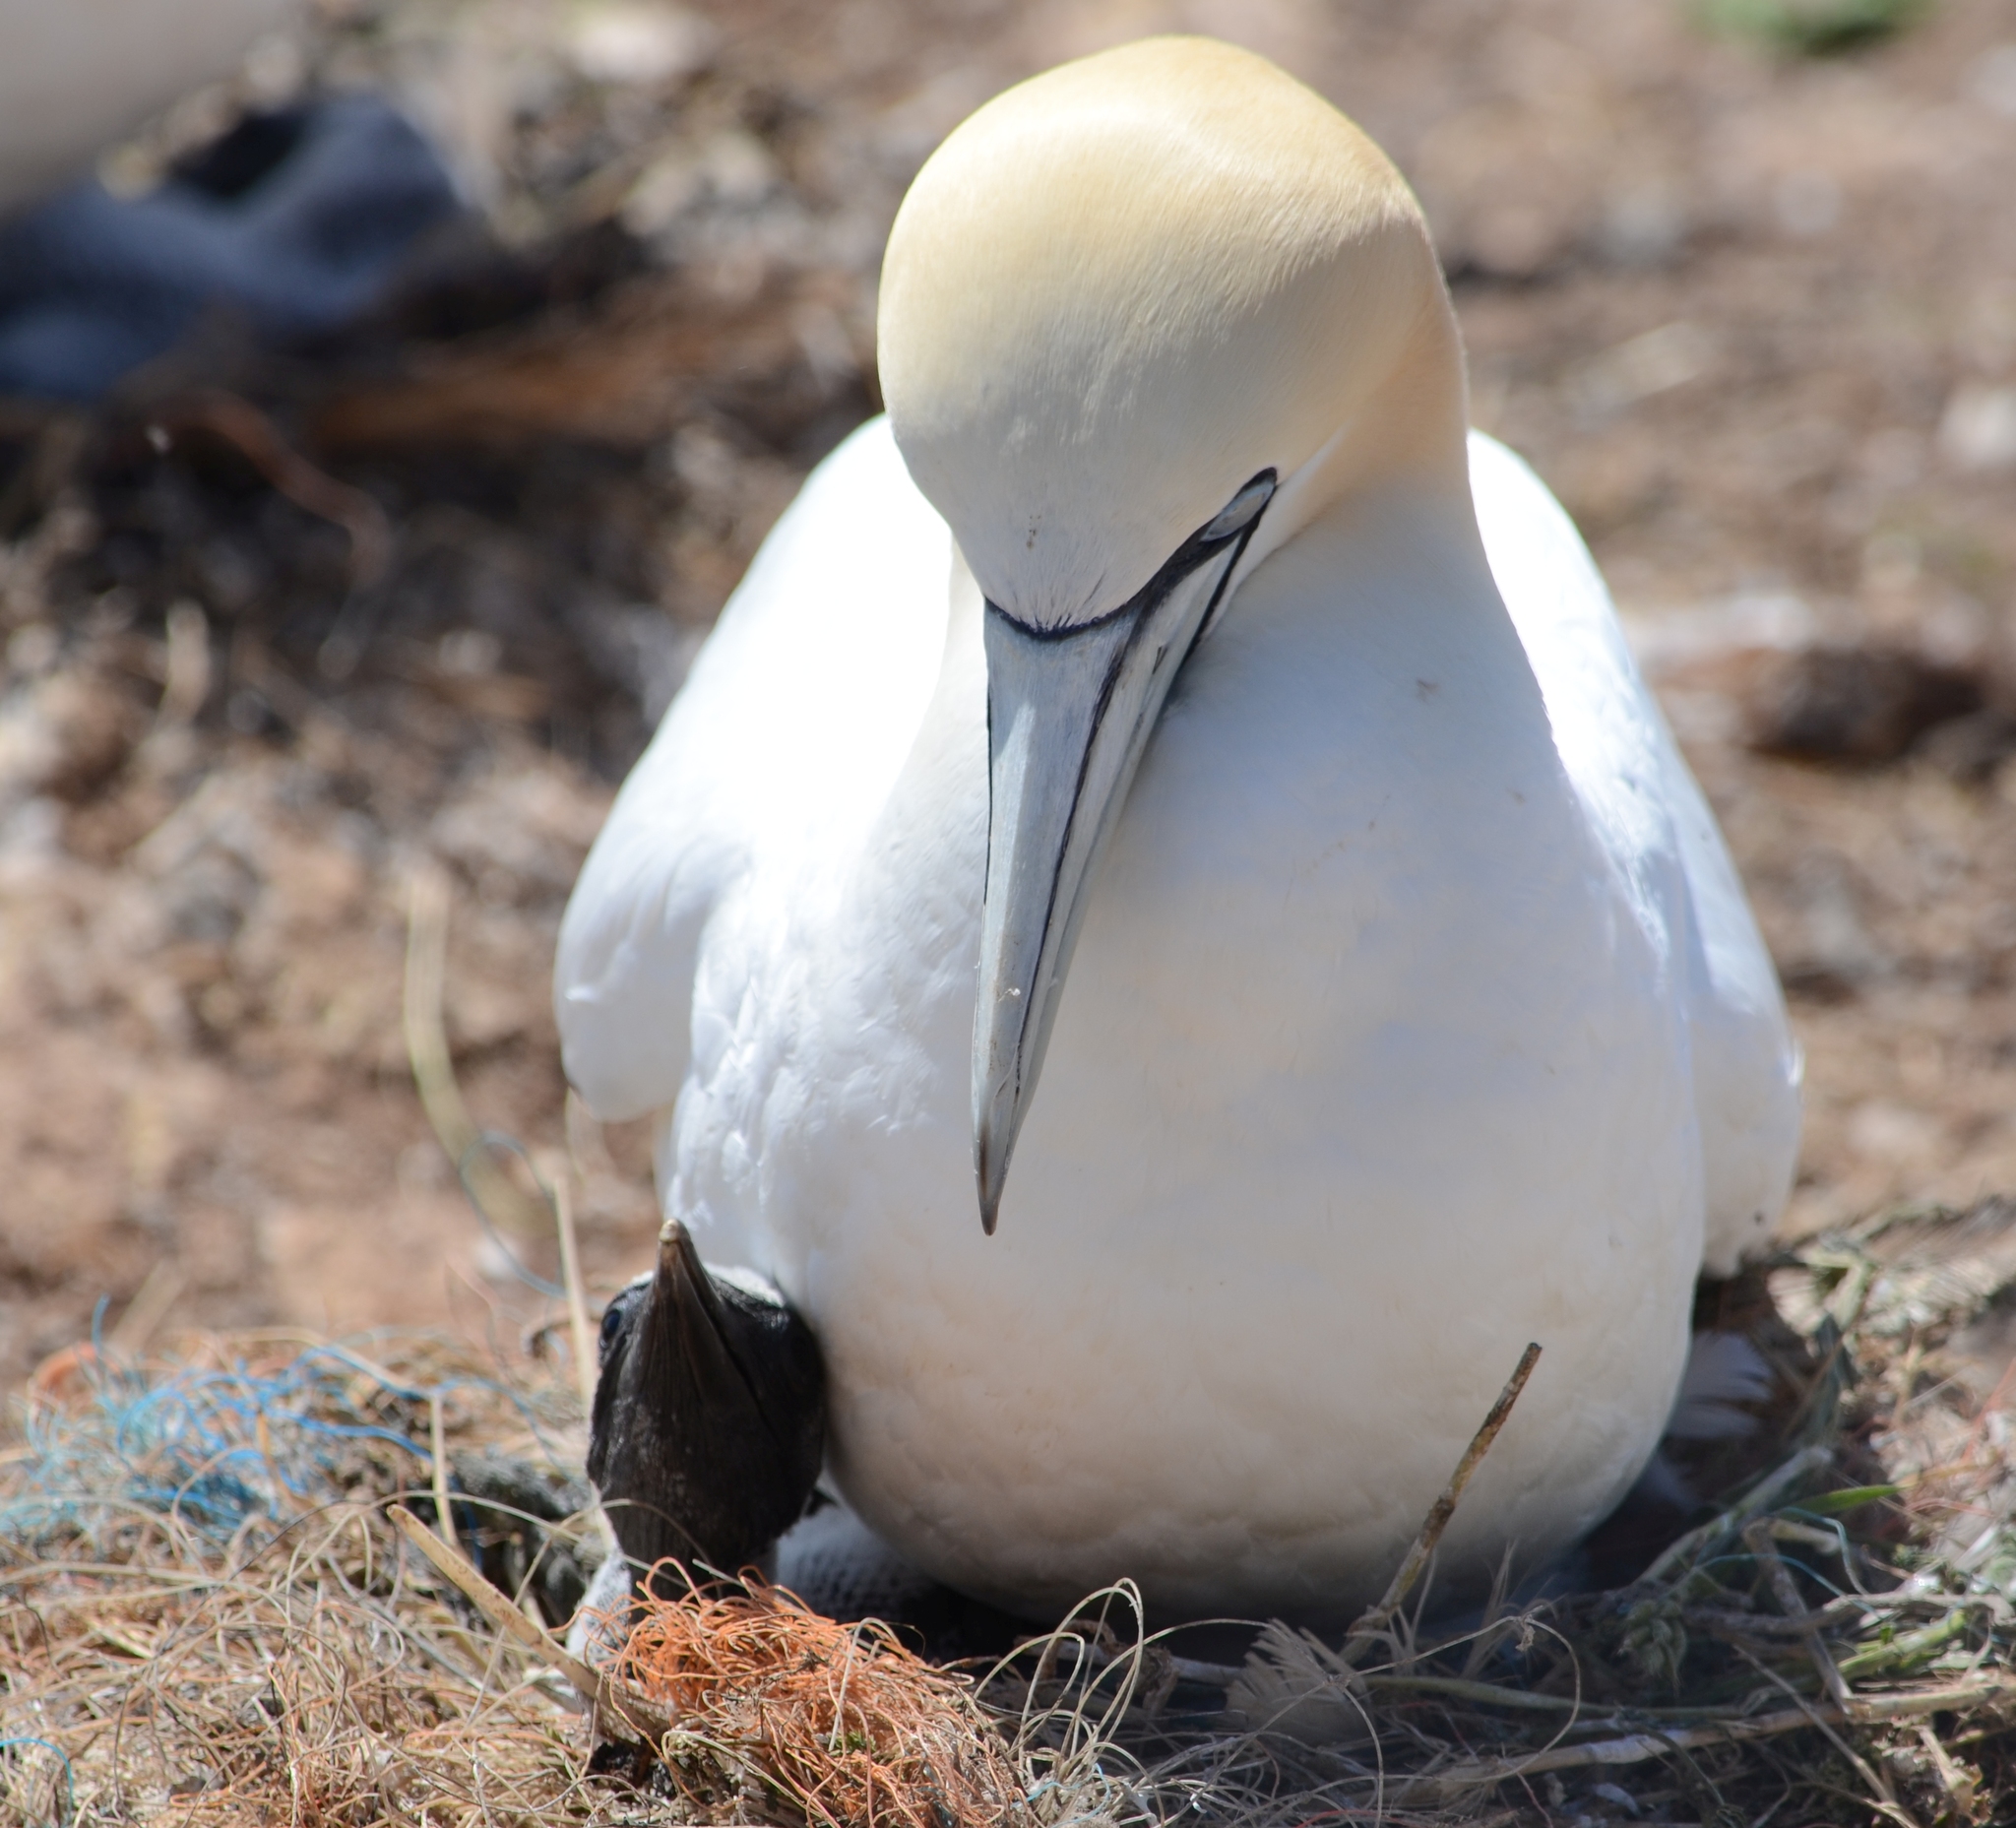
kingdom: Animalia
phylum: Chordata
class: Aves
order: Suliformes
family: Sulidae
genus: Morus
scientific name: Morus bassanus
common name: Northern gannet
